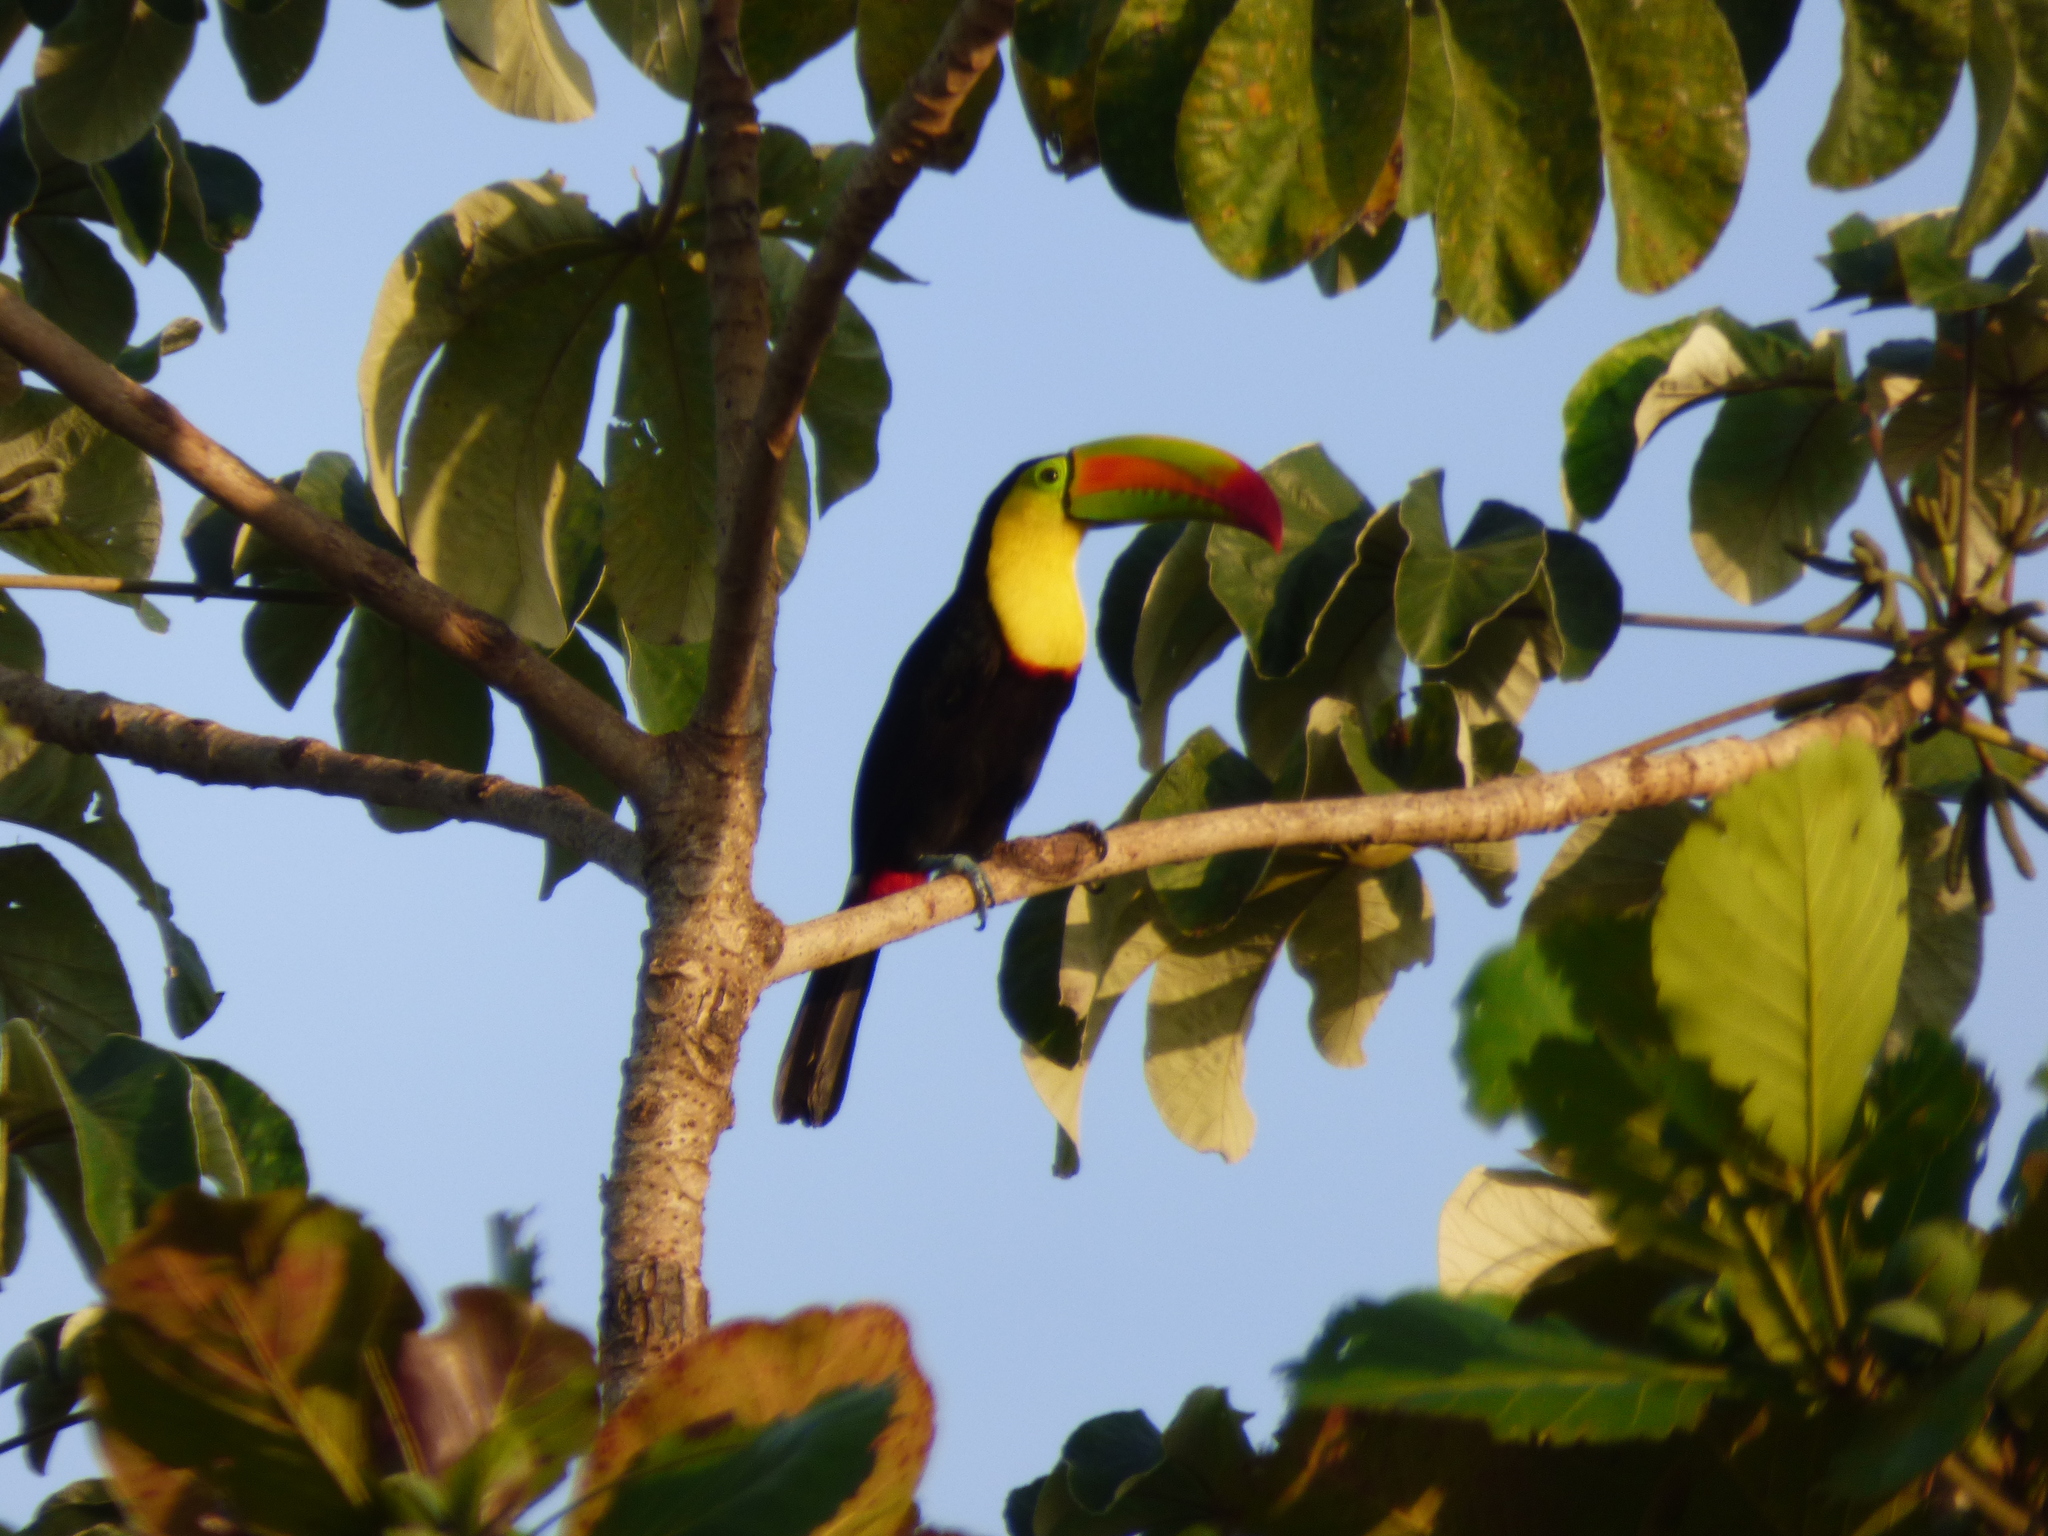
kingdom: Animalia
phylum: Chordata
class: Aves
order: Piciformes
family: Ramphastidae
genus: Ramphastos
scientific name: Ramphastos sulfuratus
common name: Keel-billed toucan
